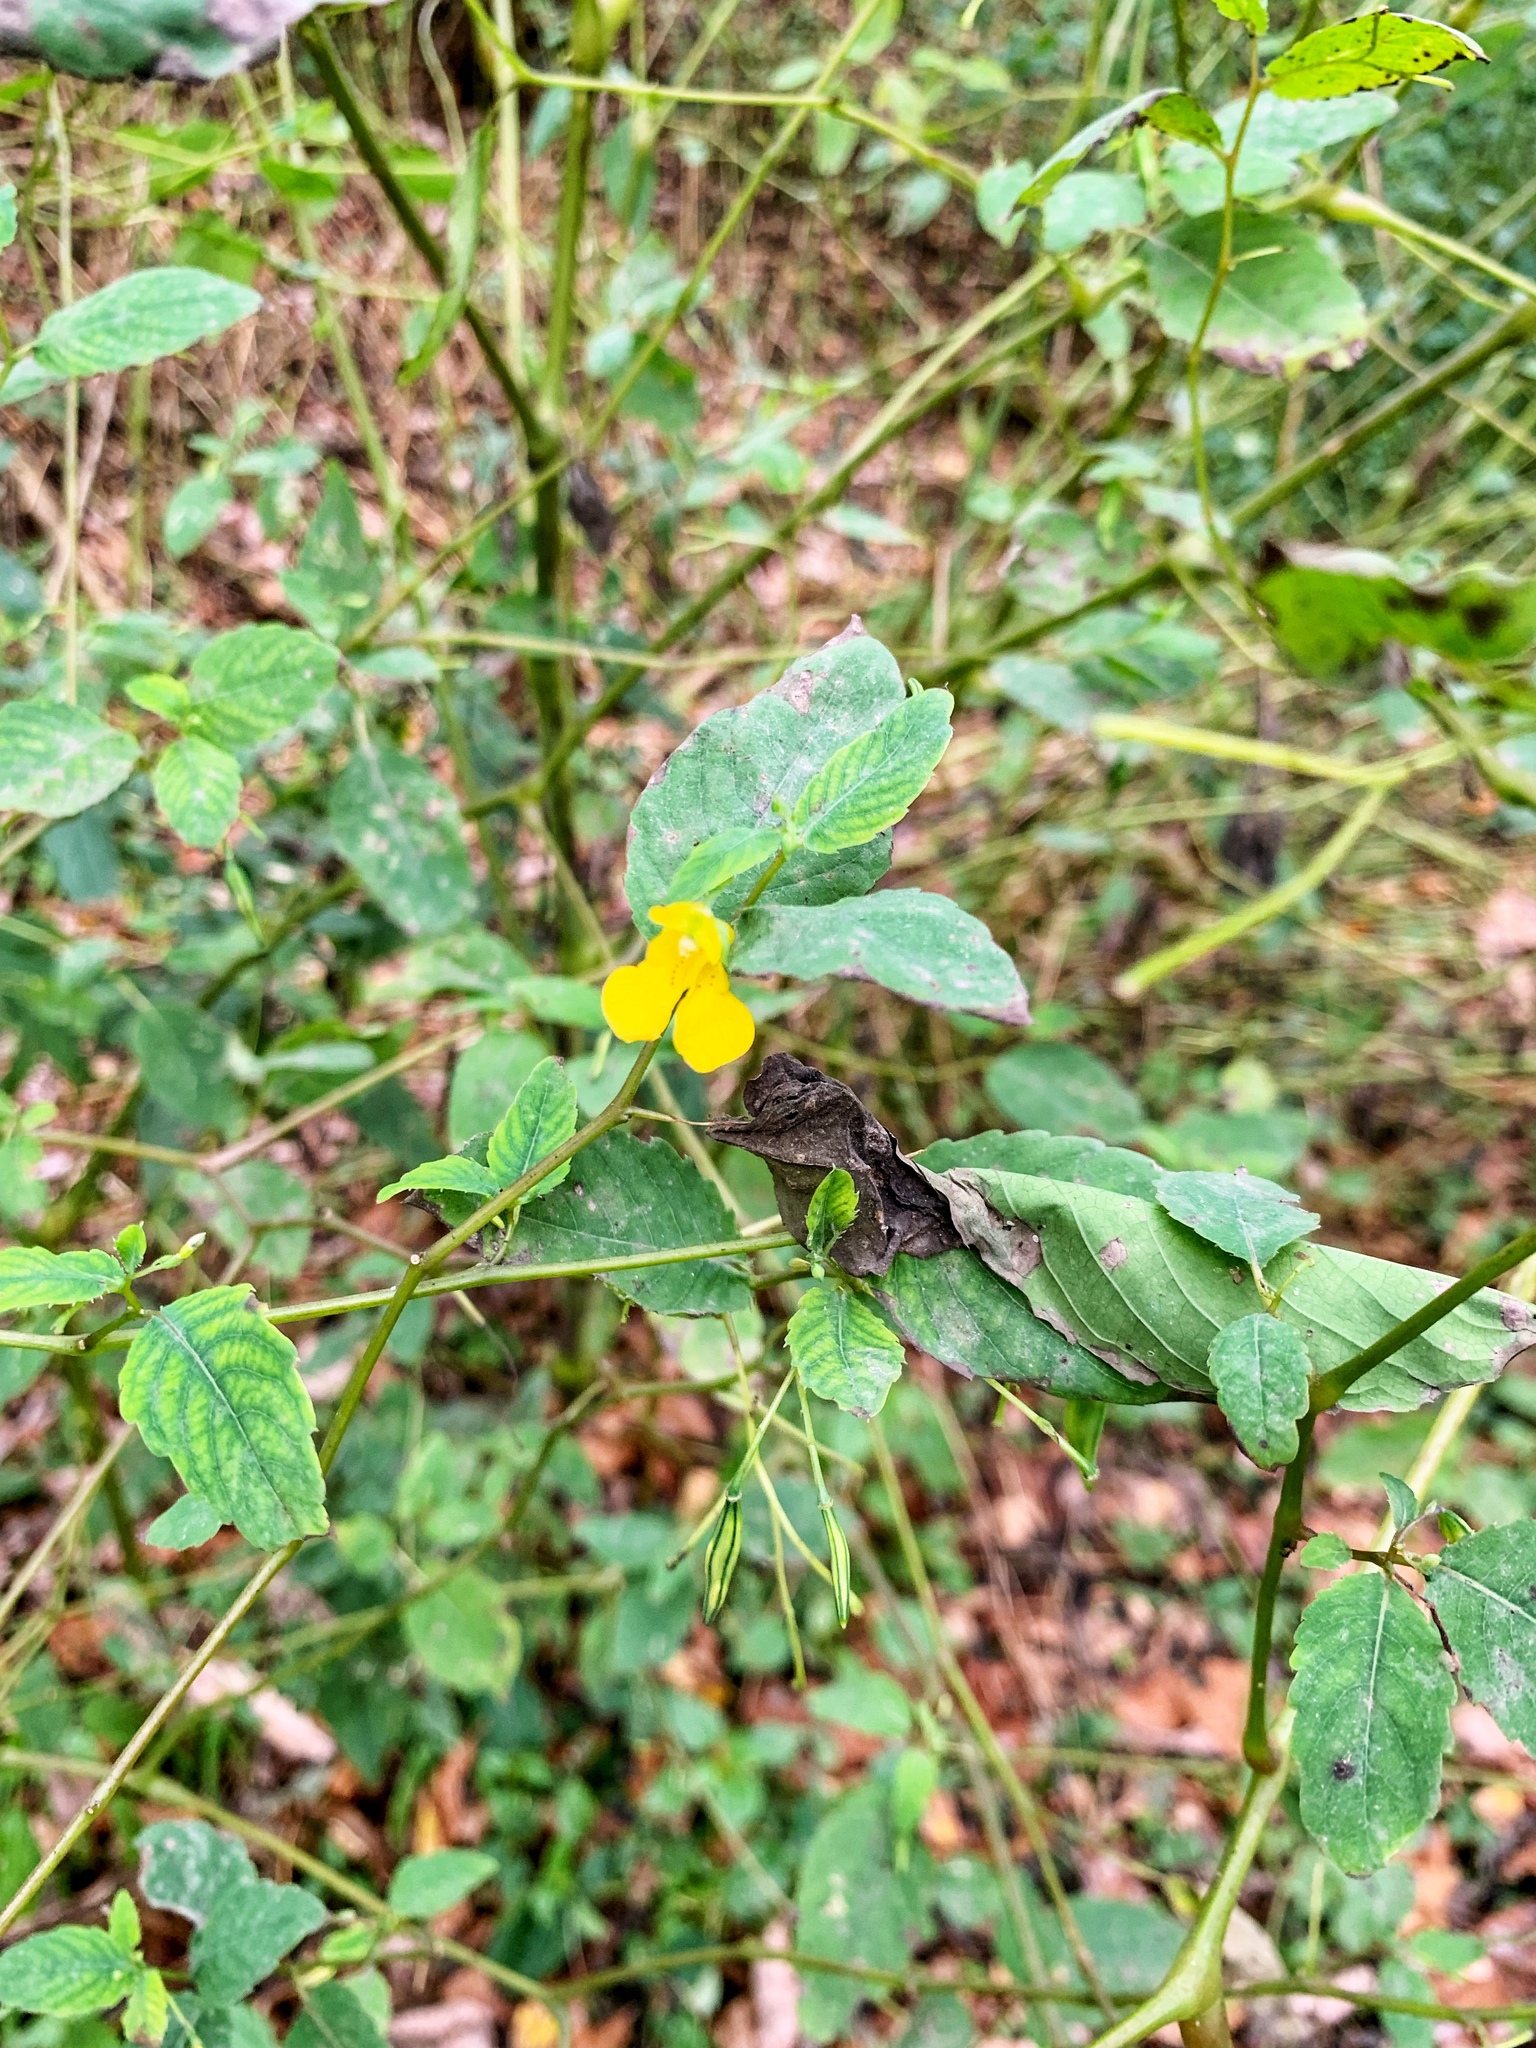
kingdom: Plantae
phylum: Tracheophyta
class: Magnoliopsida
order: Ericales
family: Balsaminaceae
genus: Impatiens
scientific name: Impatiens pallida
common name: Pale snapweed
